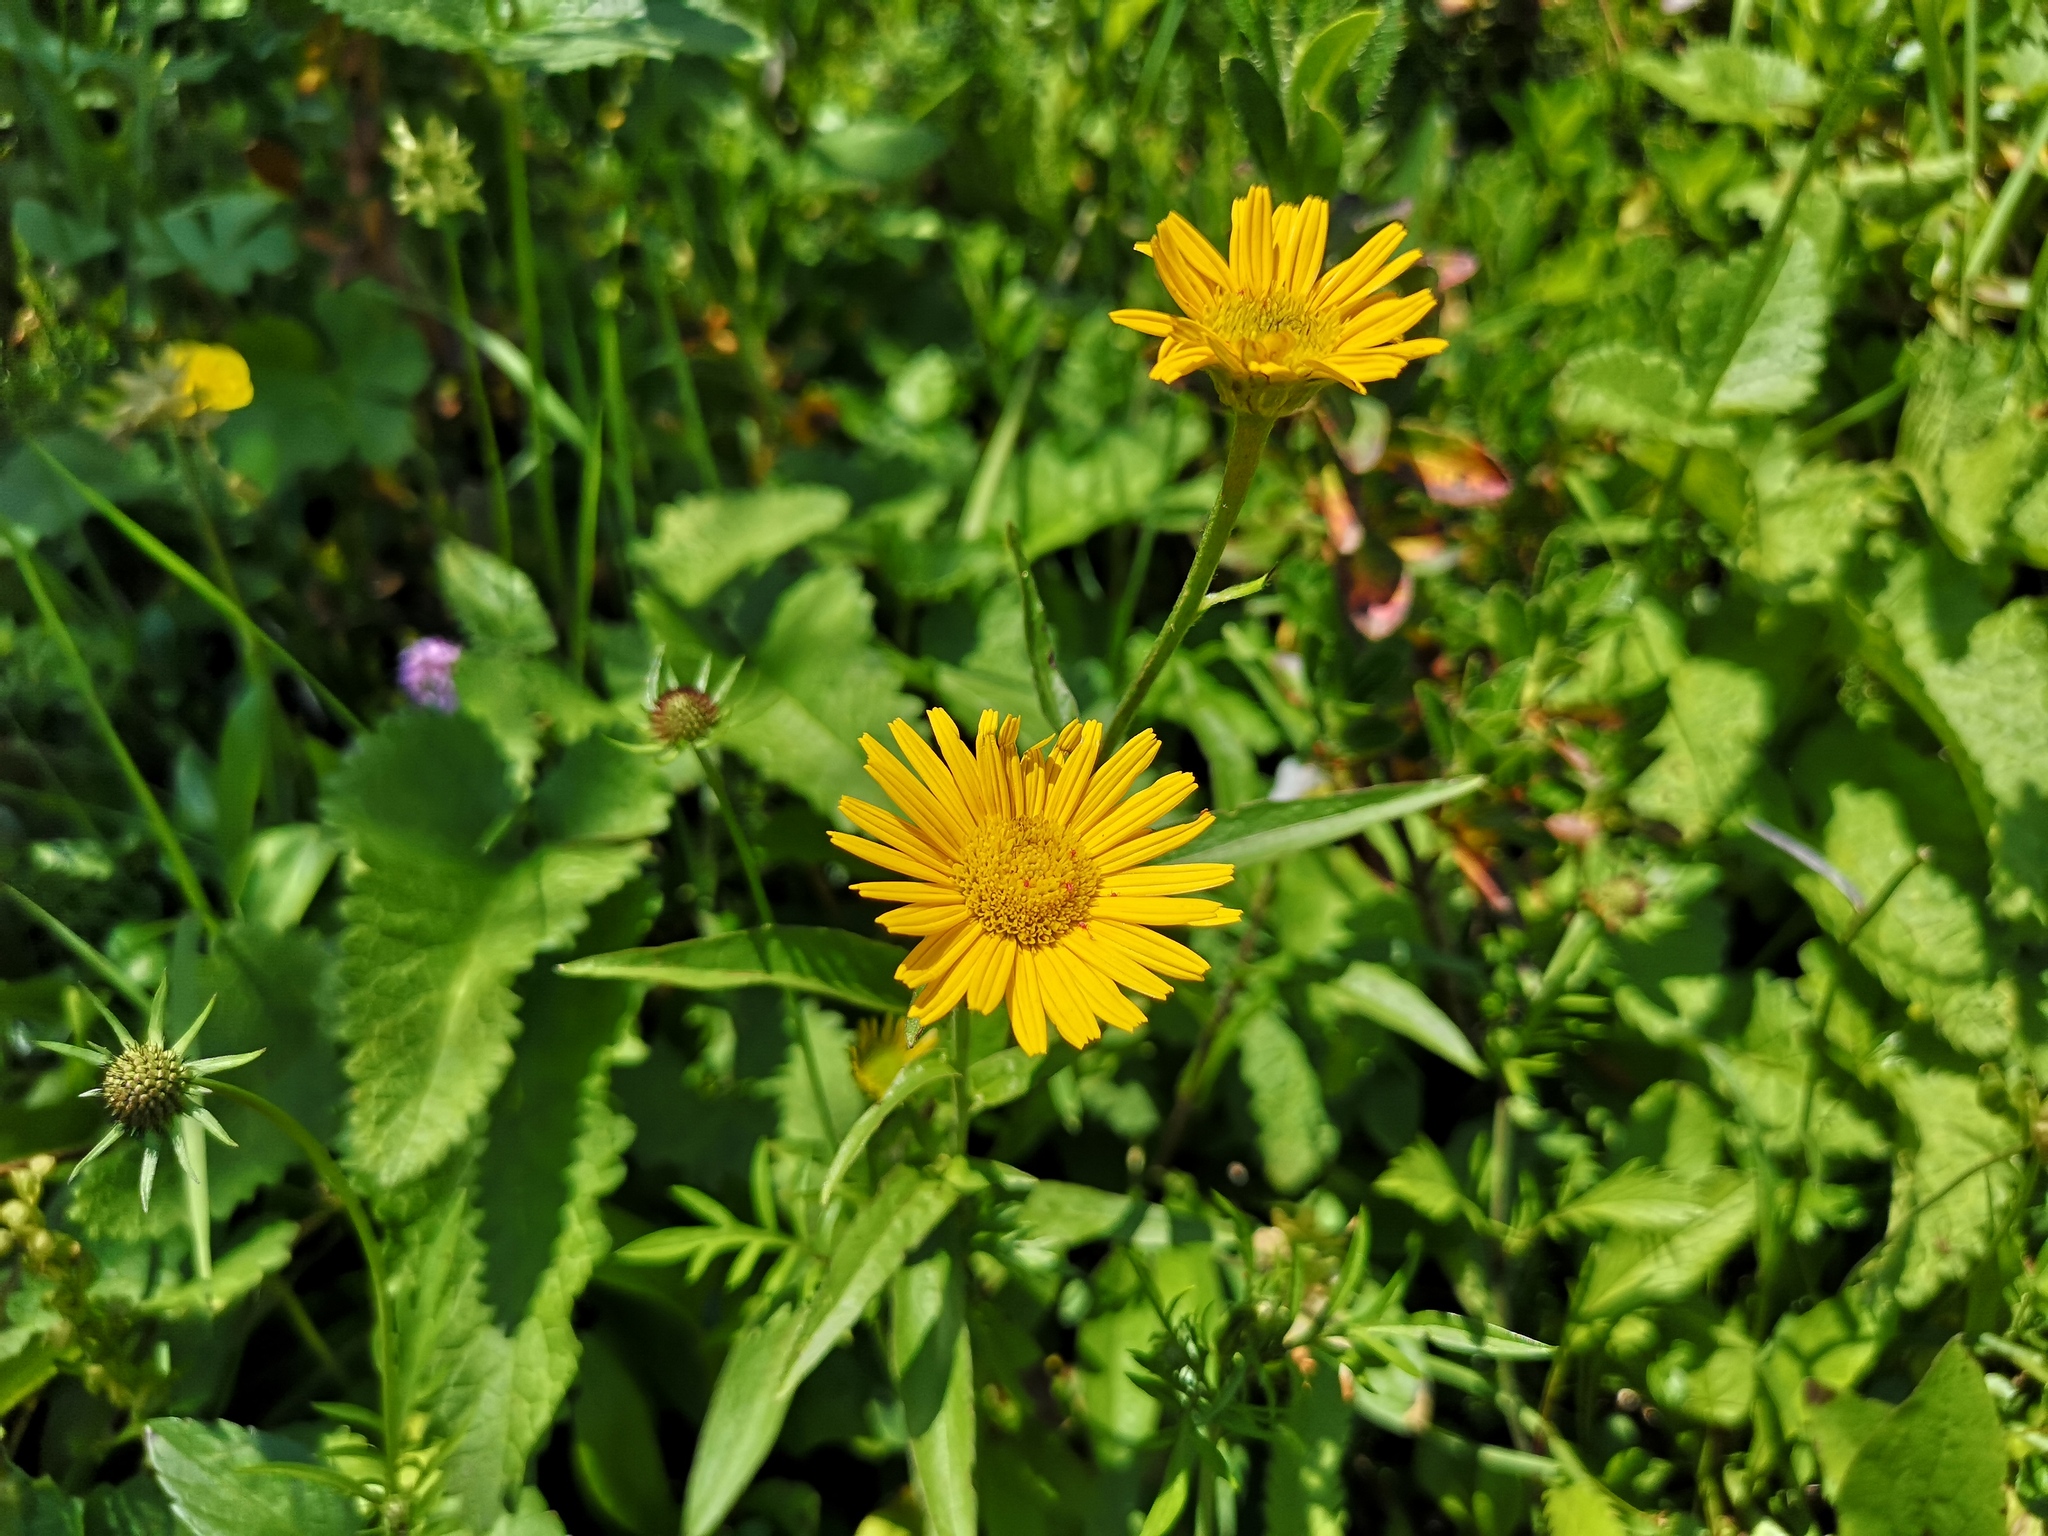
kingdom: Plantae
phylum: Tracheophyta
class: Magnoliopsida
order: Asterales
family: Asteraceae
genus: Buphthalmum
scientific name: Buphthalmum salicifolium
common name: Willow-leaved yellow-oxeye
